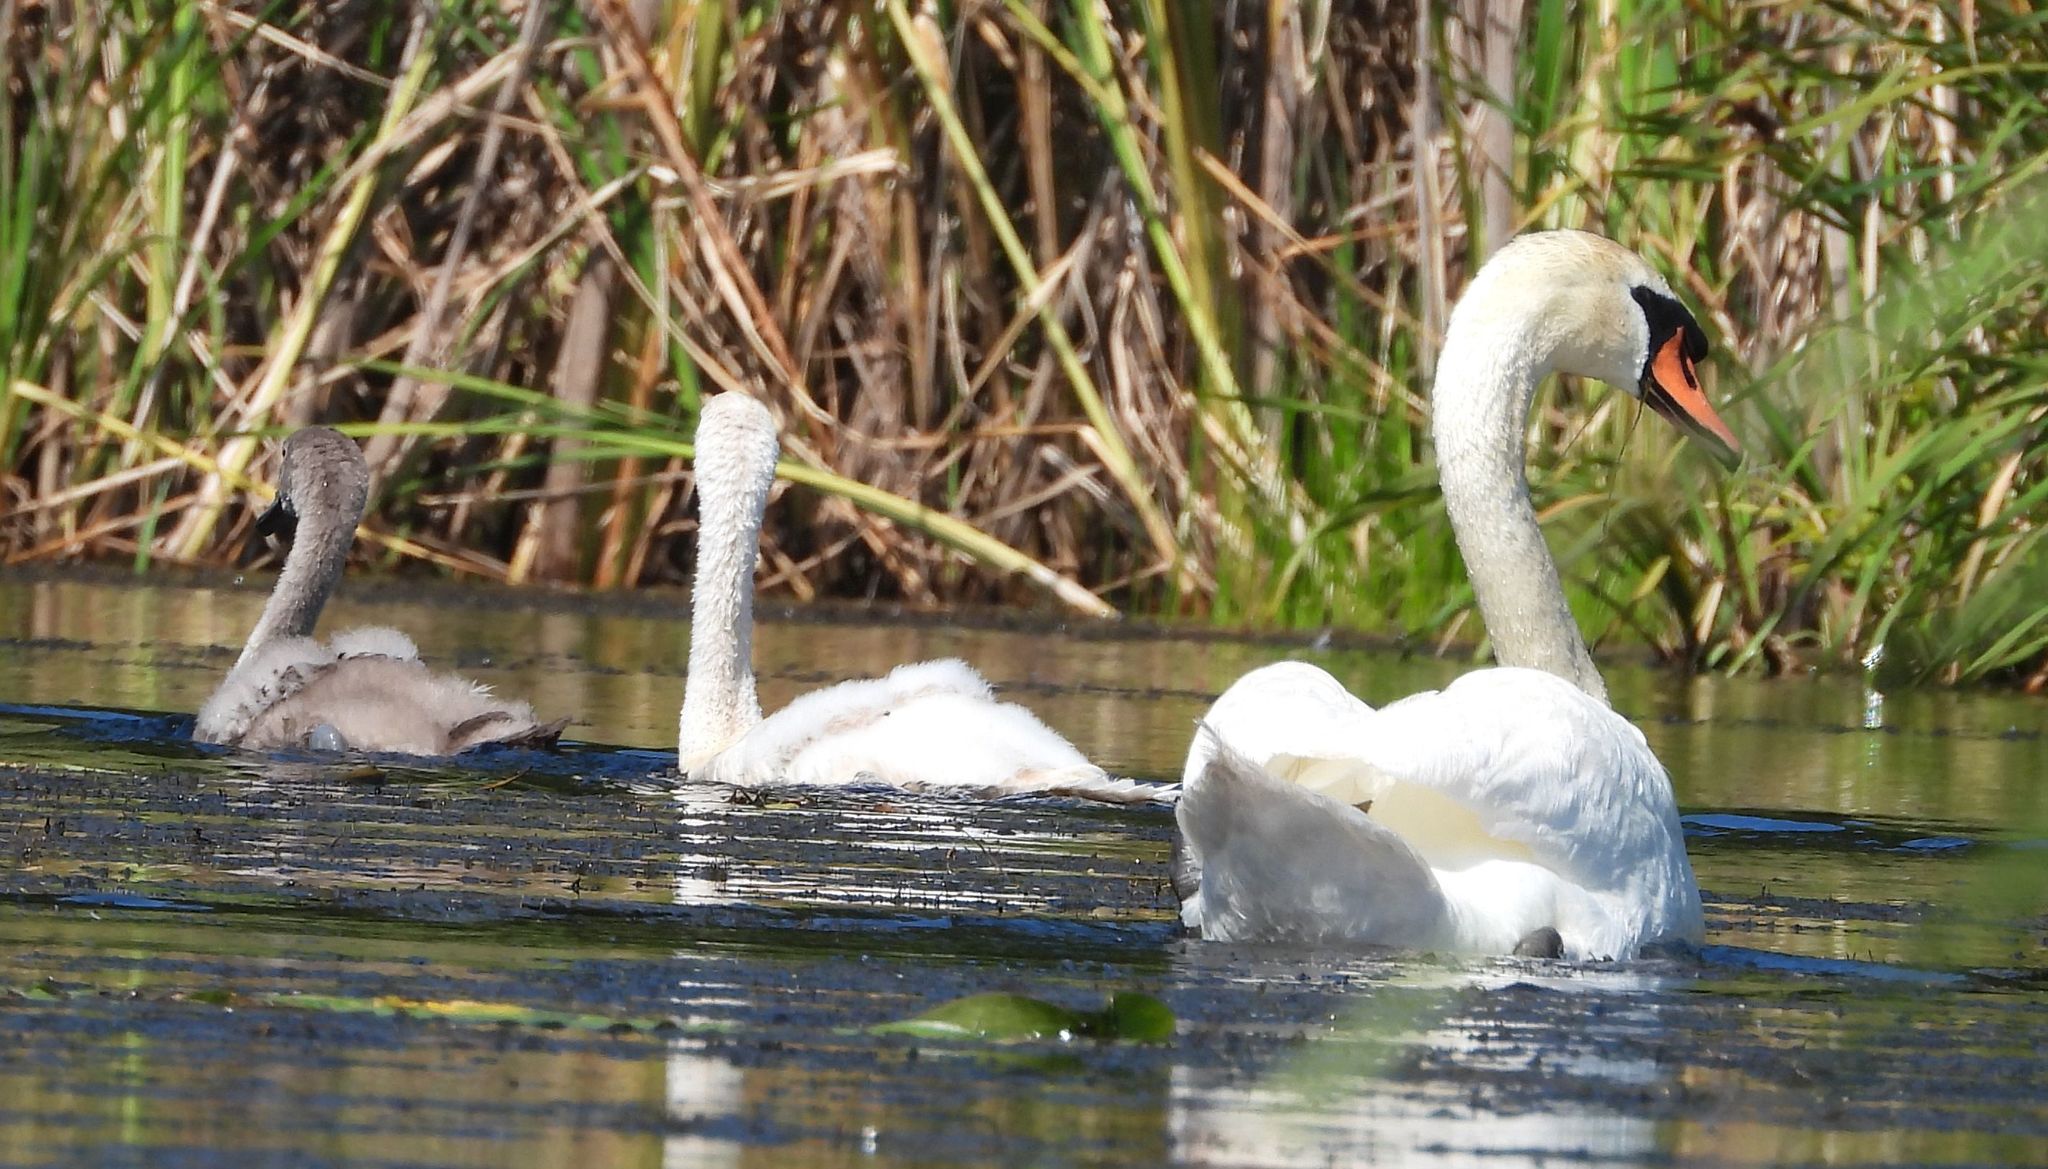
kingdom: Animalia
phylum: Chordata
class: Aves
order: Anseriformes
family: Anatidae
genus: Cygnus
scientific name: Cygnus olor
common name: Mute swan
